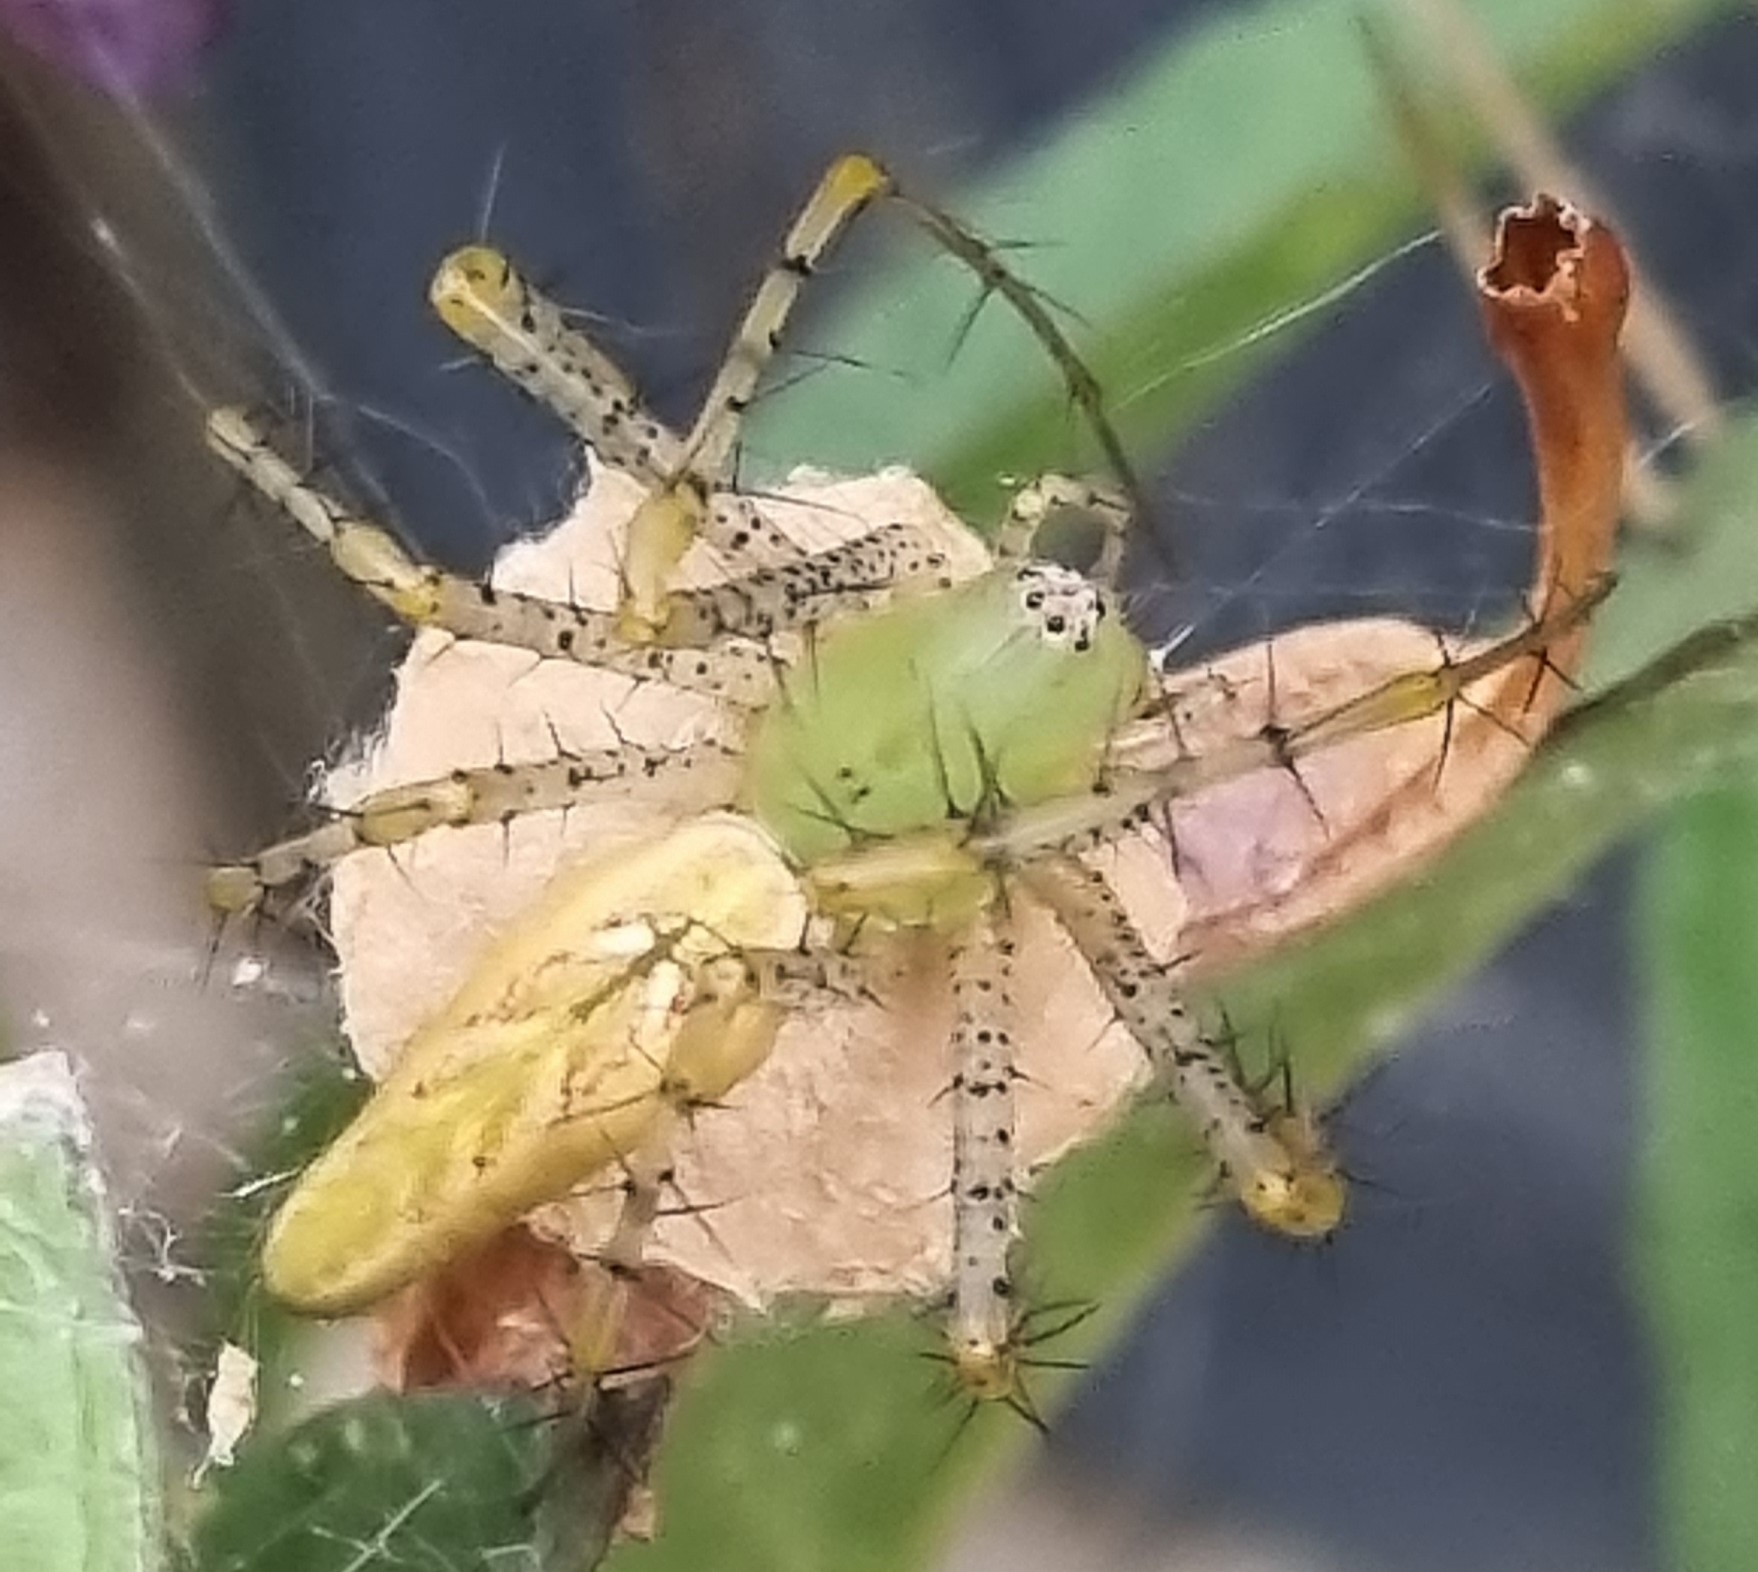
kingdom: Animalia
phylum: Arthropoda
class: Arachnida
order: Araneae
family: Oxyopidae
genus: Peucetia
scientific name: Peucetia viridans
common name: Lynx spiders
